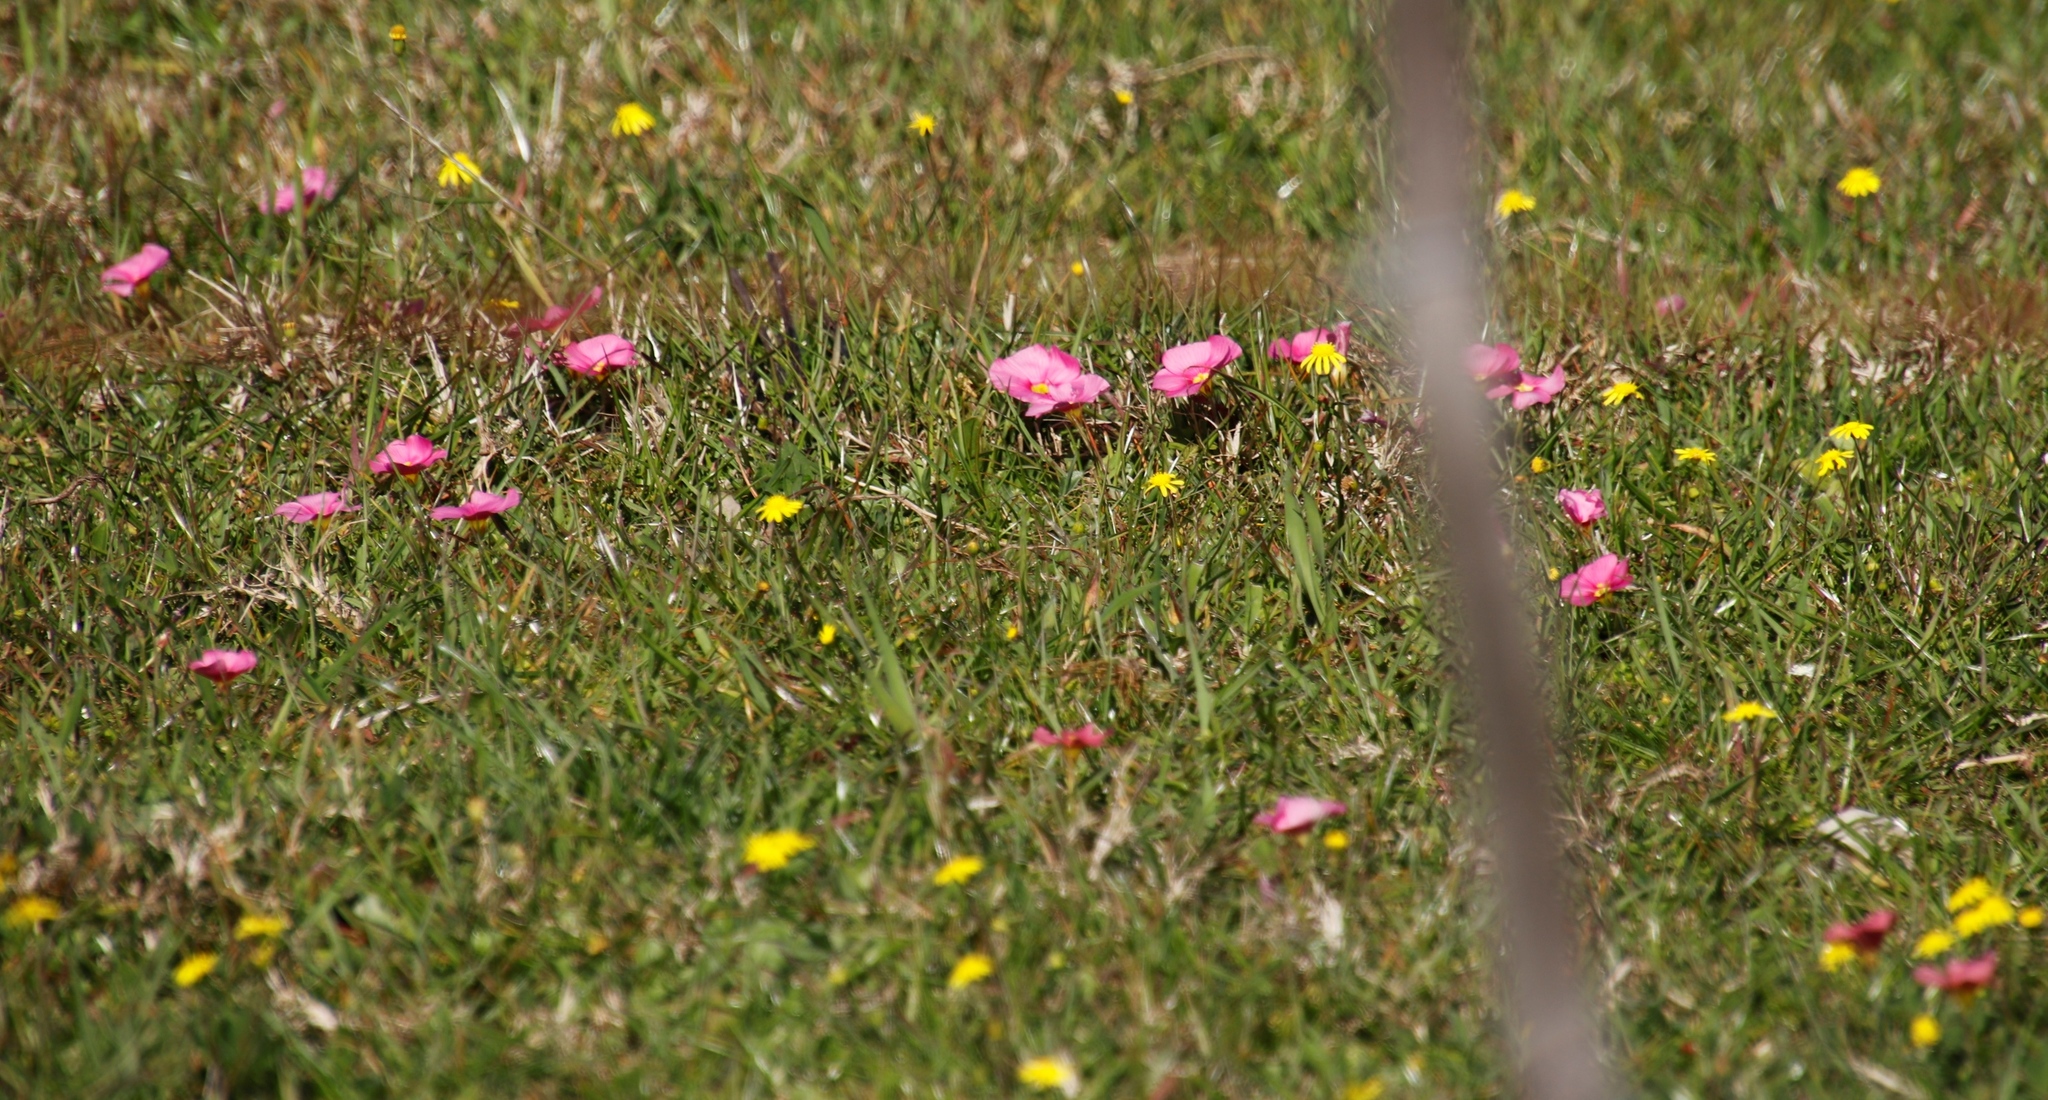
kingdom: Plantae
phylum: Tracheophyta
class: Magnoliopsida
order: Oxalidales
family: Oxalidaceae
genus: Oxalis
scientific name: Oxalis obtusa
